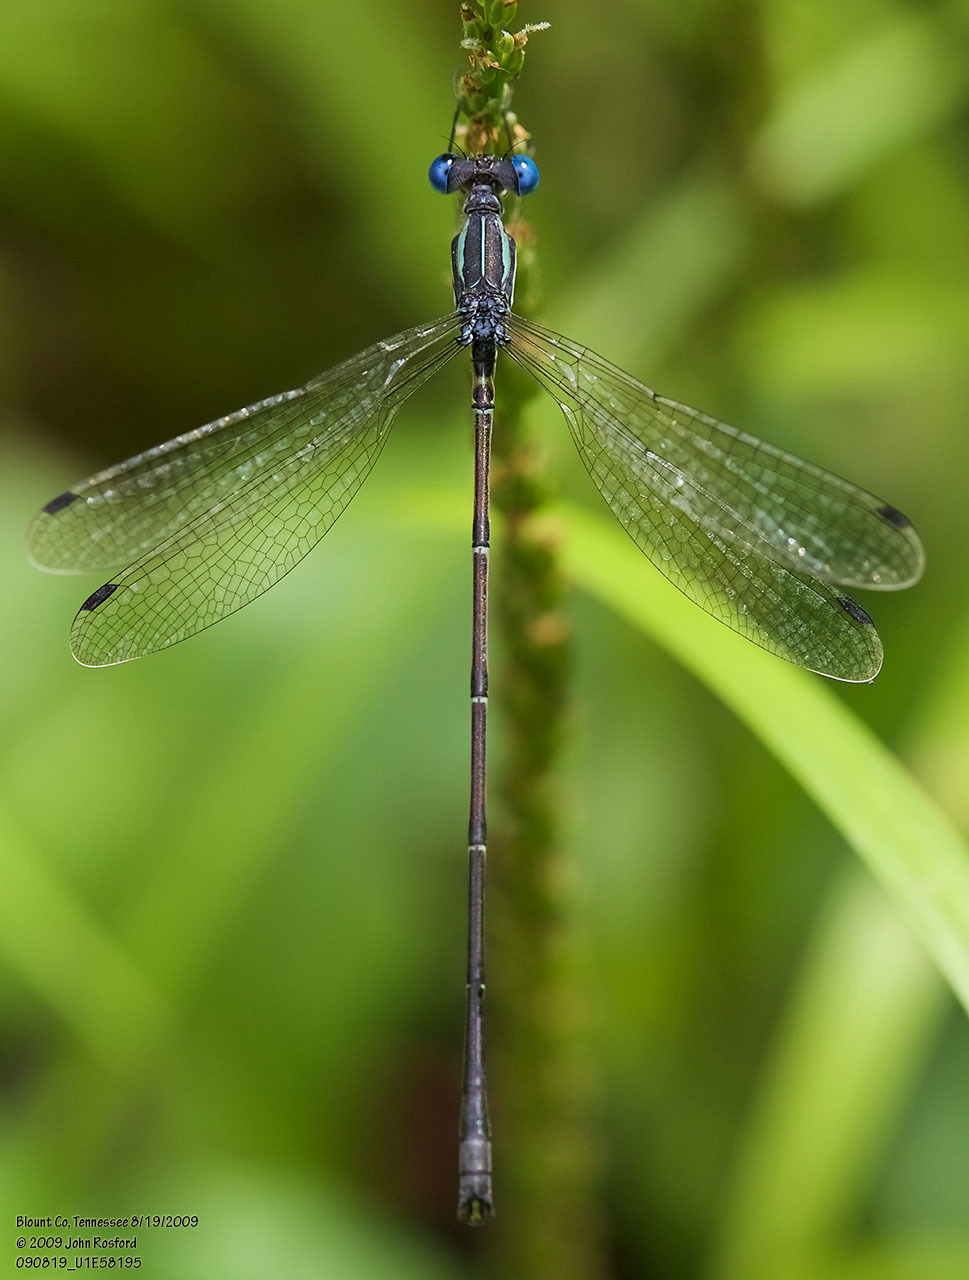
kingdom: Animalia
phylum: Arthropoda
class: Insecta
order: Odonata
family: Lestidae
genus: Lestes
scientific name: Lestes rectangularis
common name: Slender spreadwing
